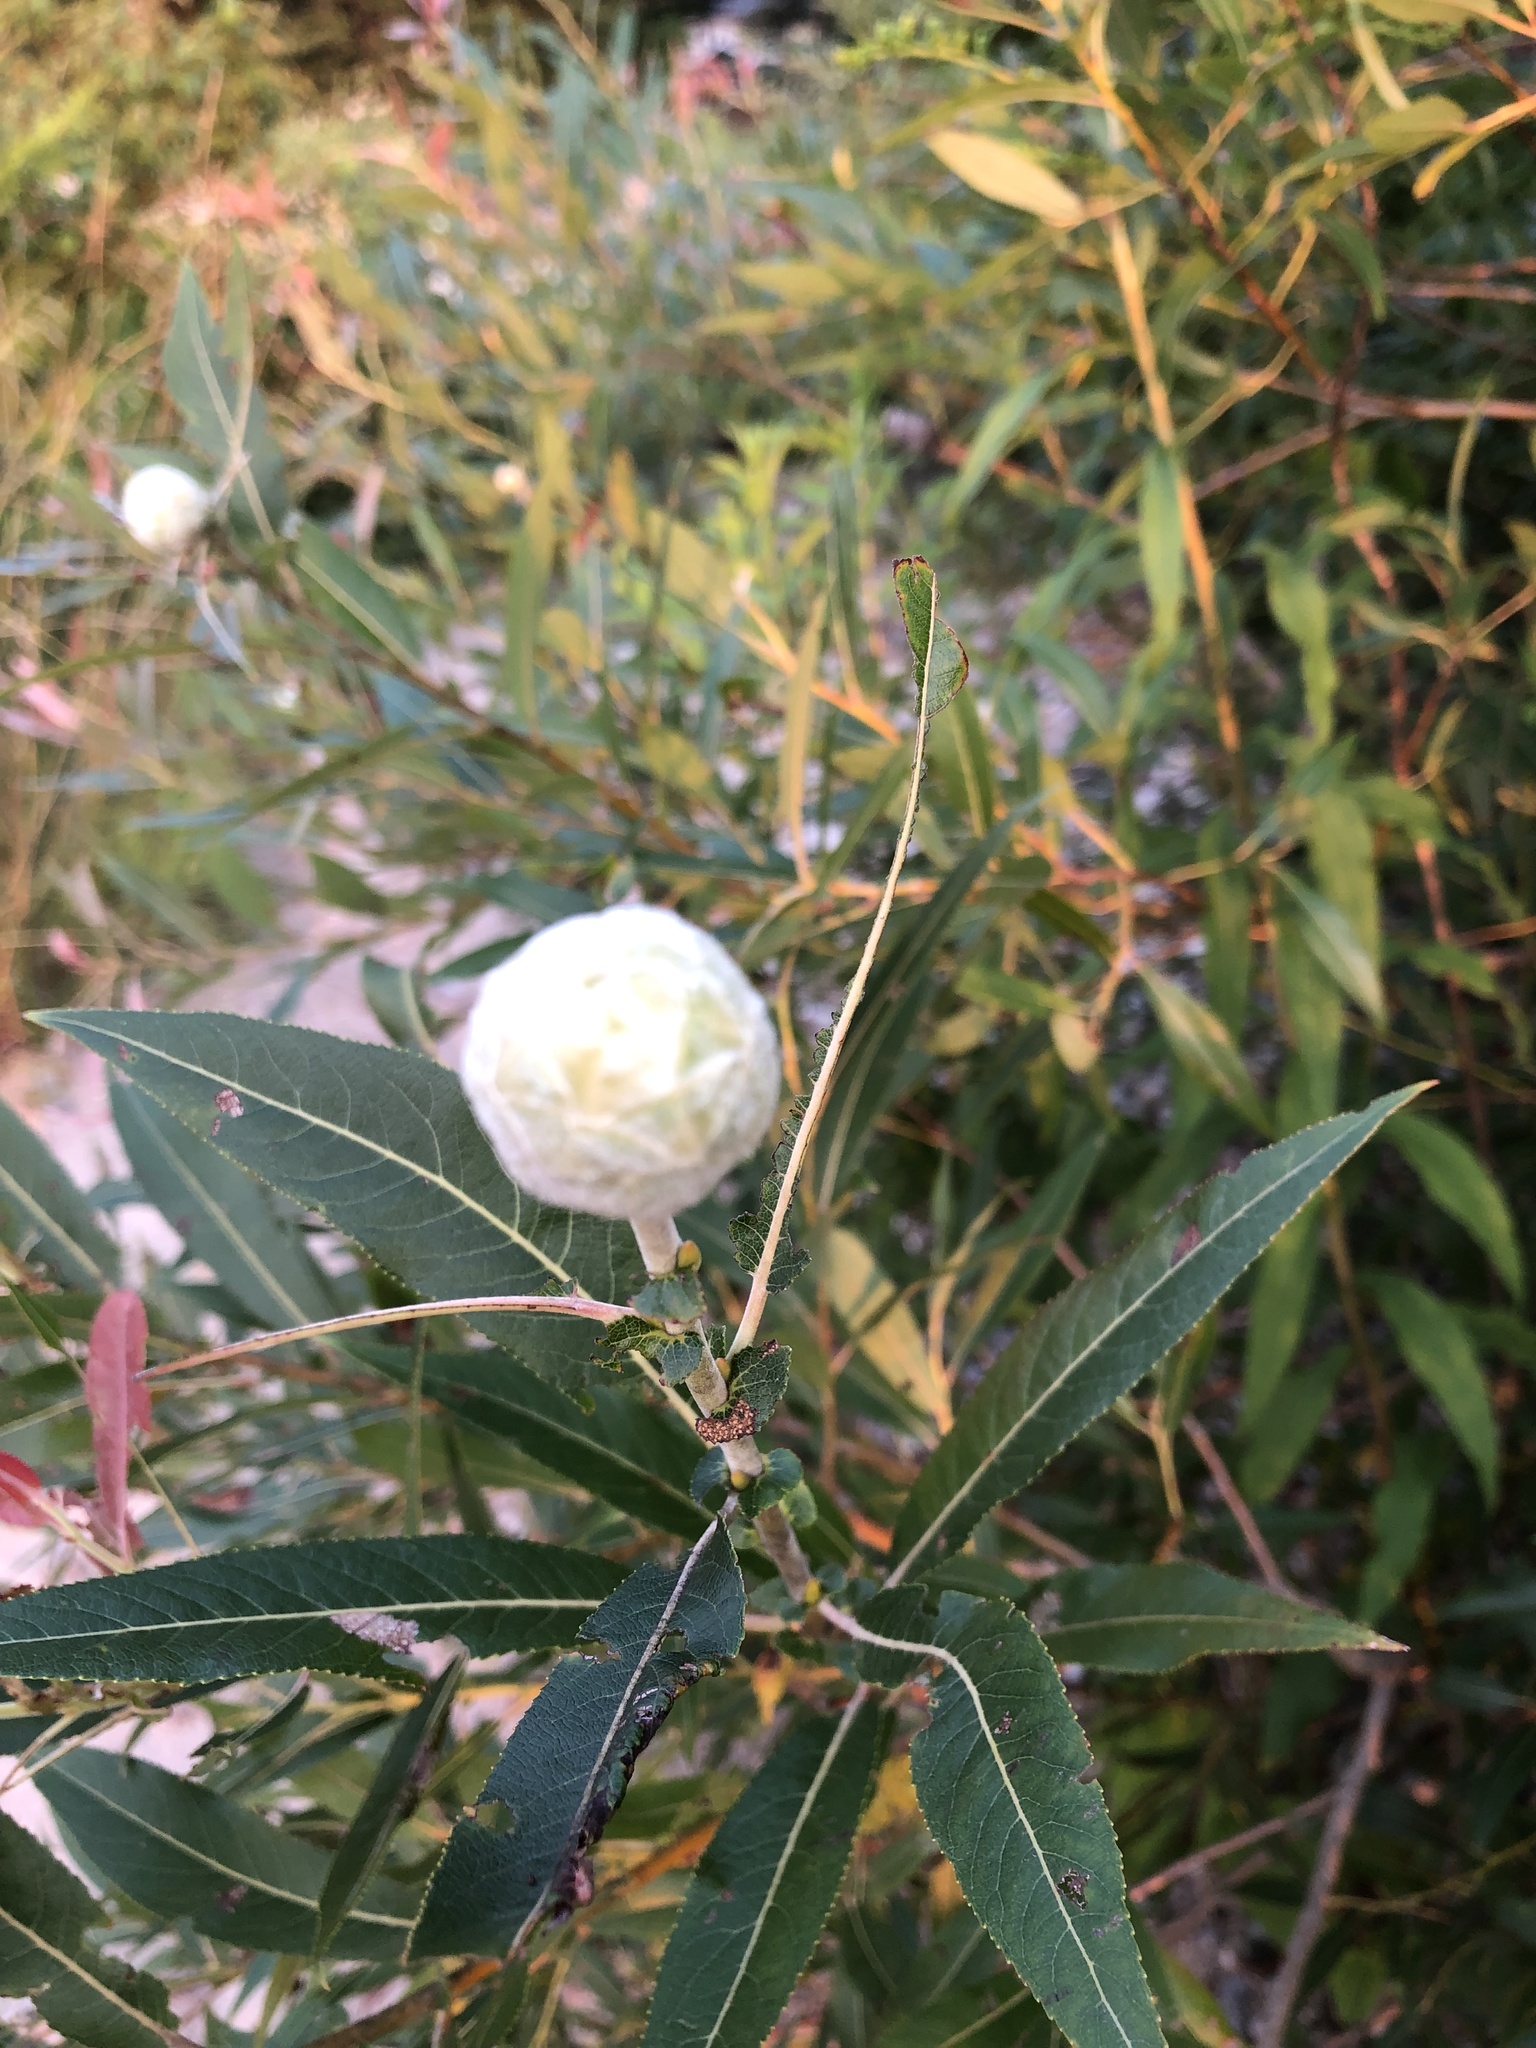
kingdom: Animalia
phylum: Arthropoda
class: Insecta
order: Diptera
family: Cecidomyiidae
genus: Rabdophaga
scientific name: Rabdophaga strobiloides
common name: Willow pinecone gall midge
